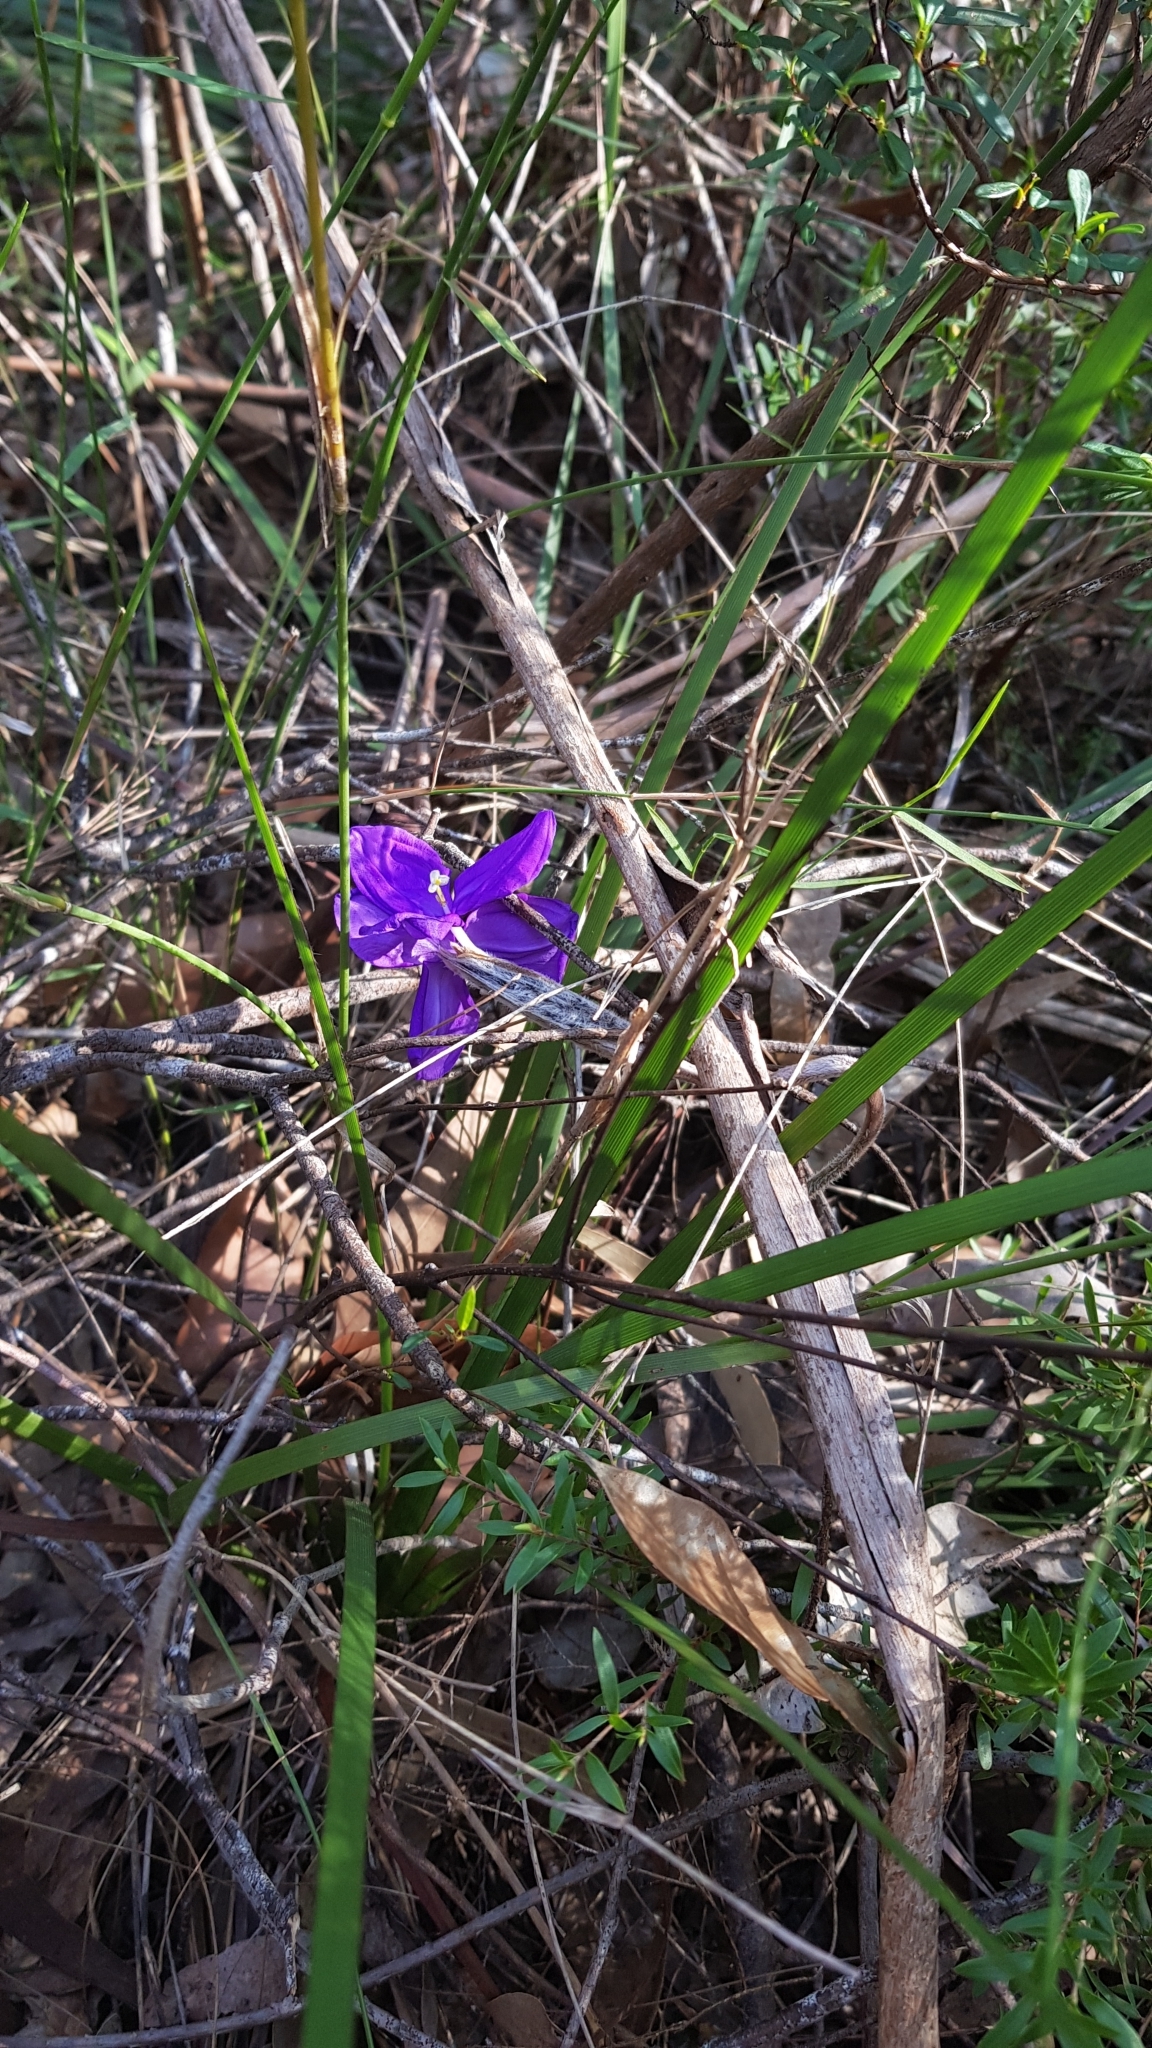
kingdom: Plantae
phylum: Tracheophyta
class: Liliopsida
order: Asparagales
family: Iridaceae
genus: Patersonia
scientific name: Patersonia sericea
